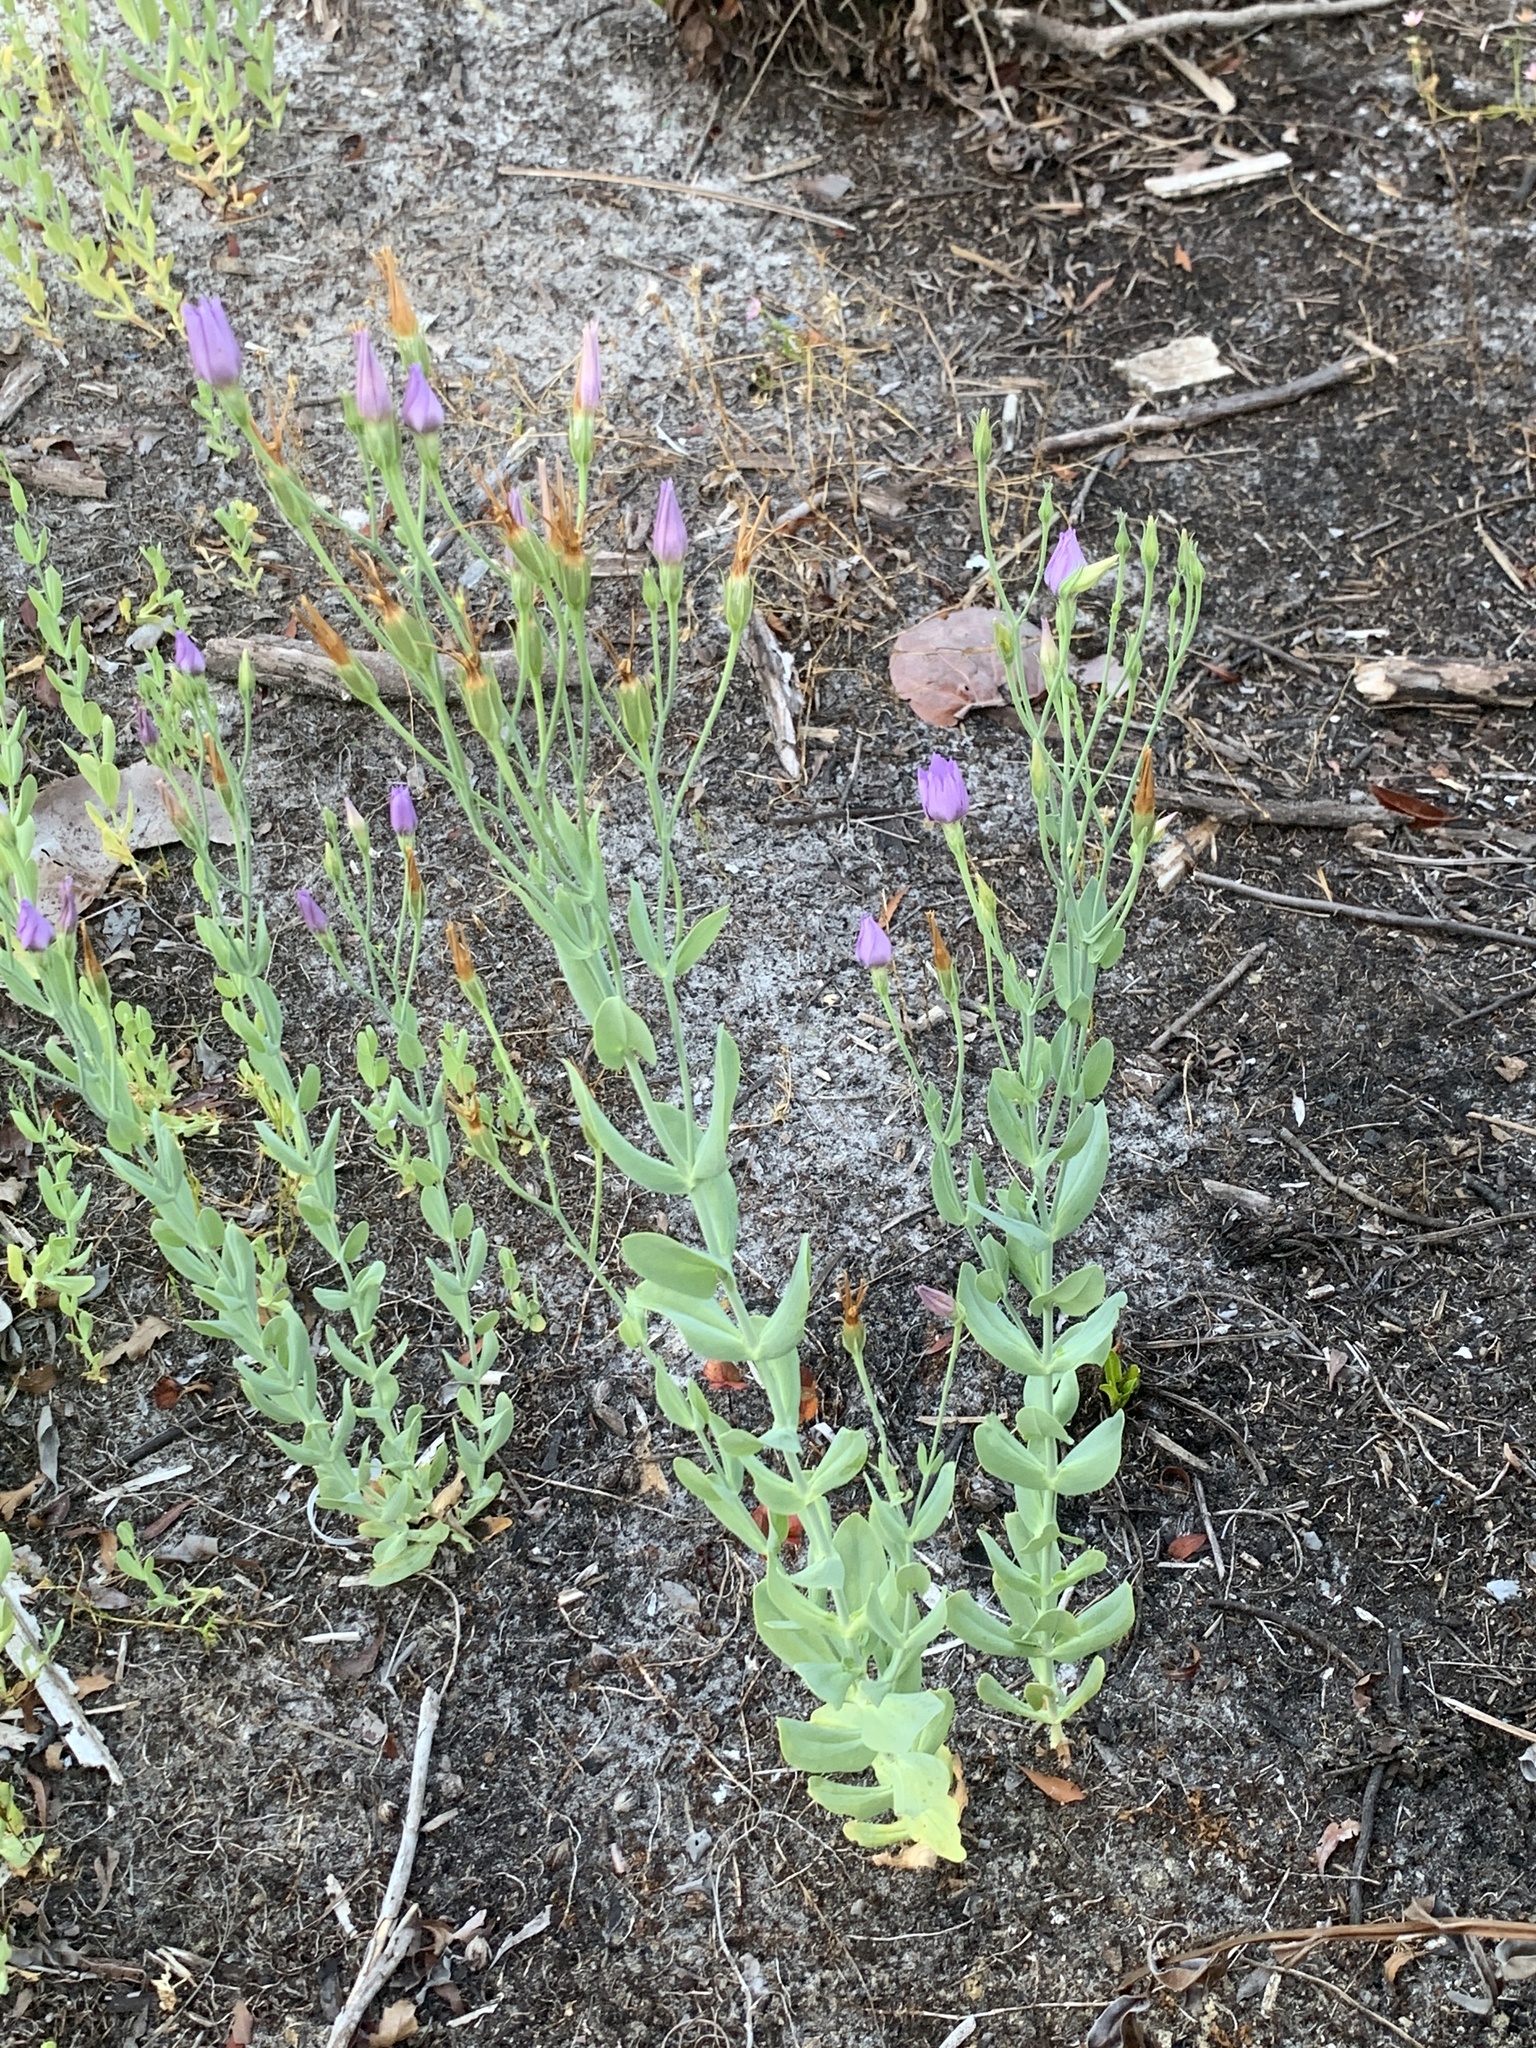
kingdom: Plantae
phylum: Tracheophyta
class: Magnoliopsida
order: Gentianales
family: Gentianaceae
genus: Eustoma
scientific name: Eustoma exaltatum
